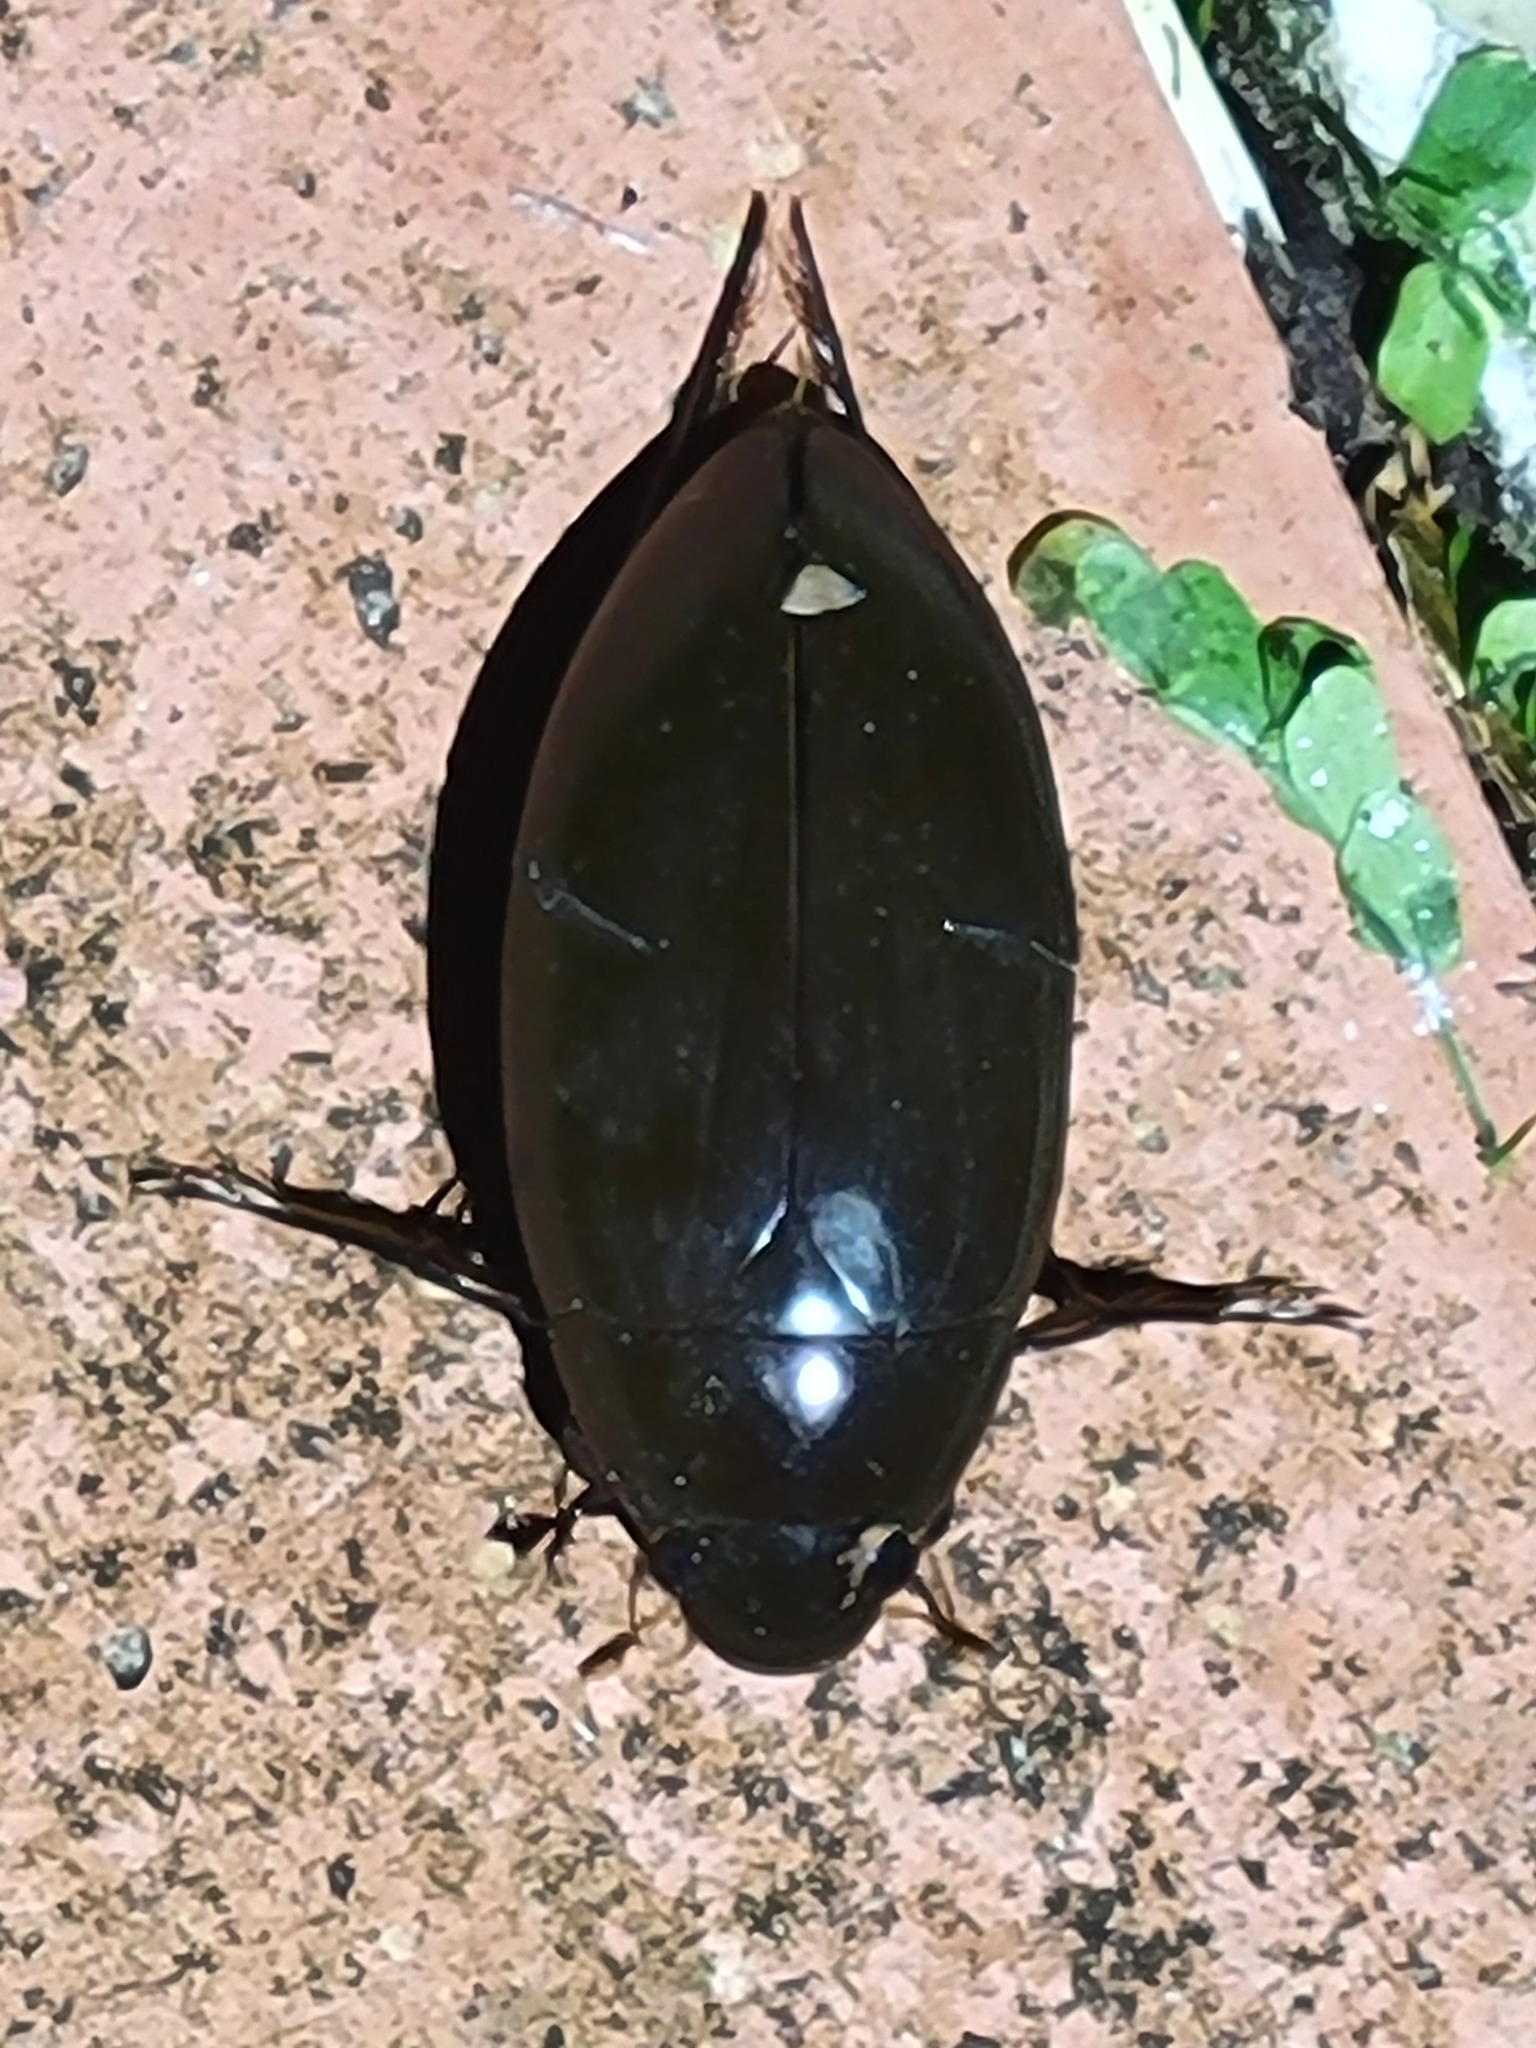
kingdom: Animalia
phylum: Arthropoda
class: Insecta
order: Coleoptera
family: Hydrophilidae
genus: Hydrophilus
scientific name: Hydrophilus
